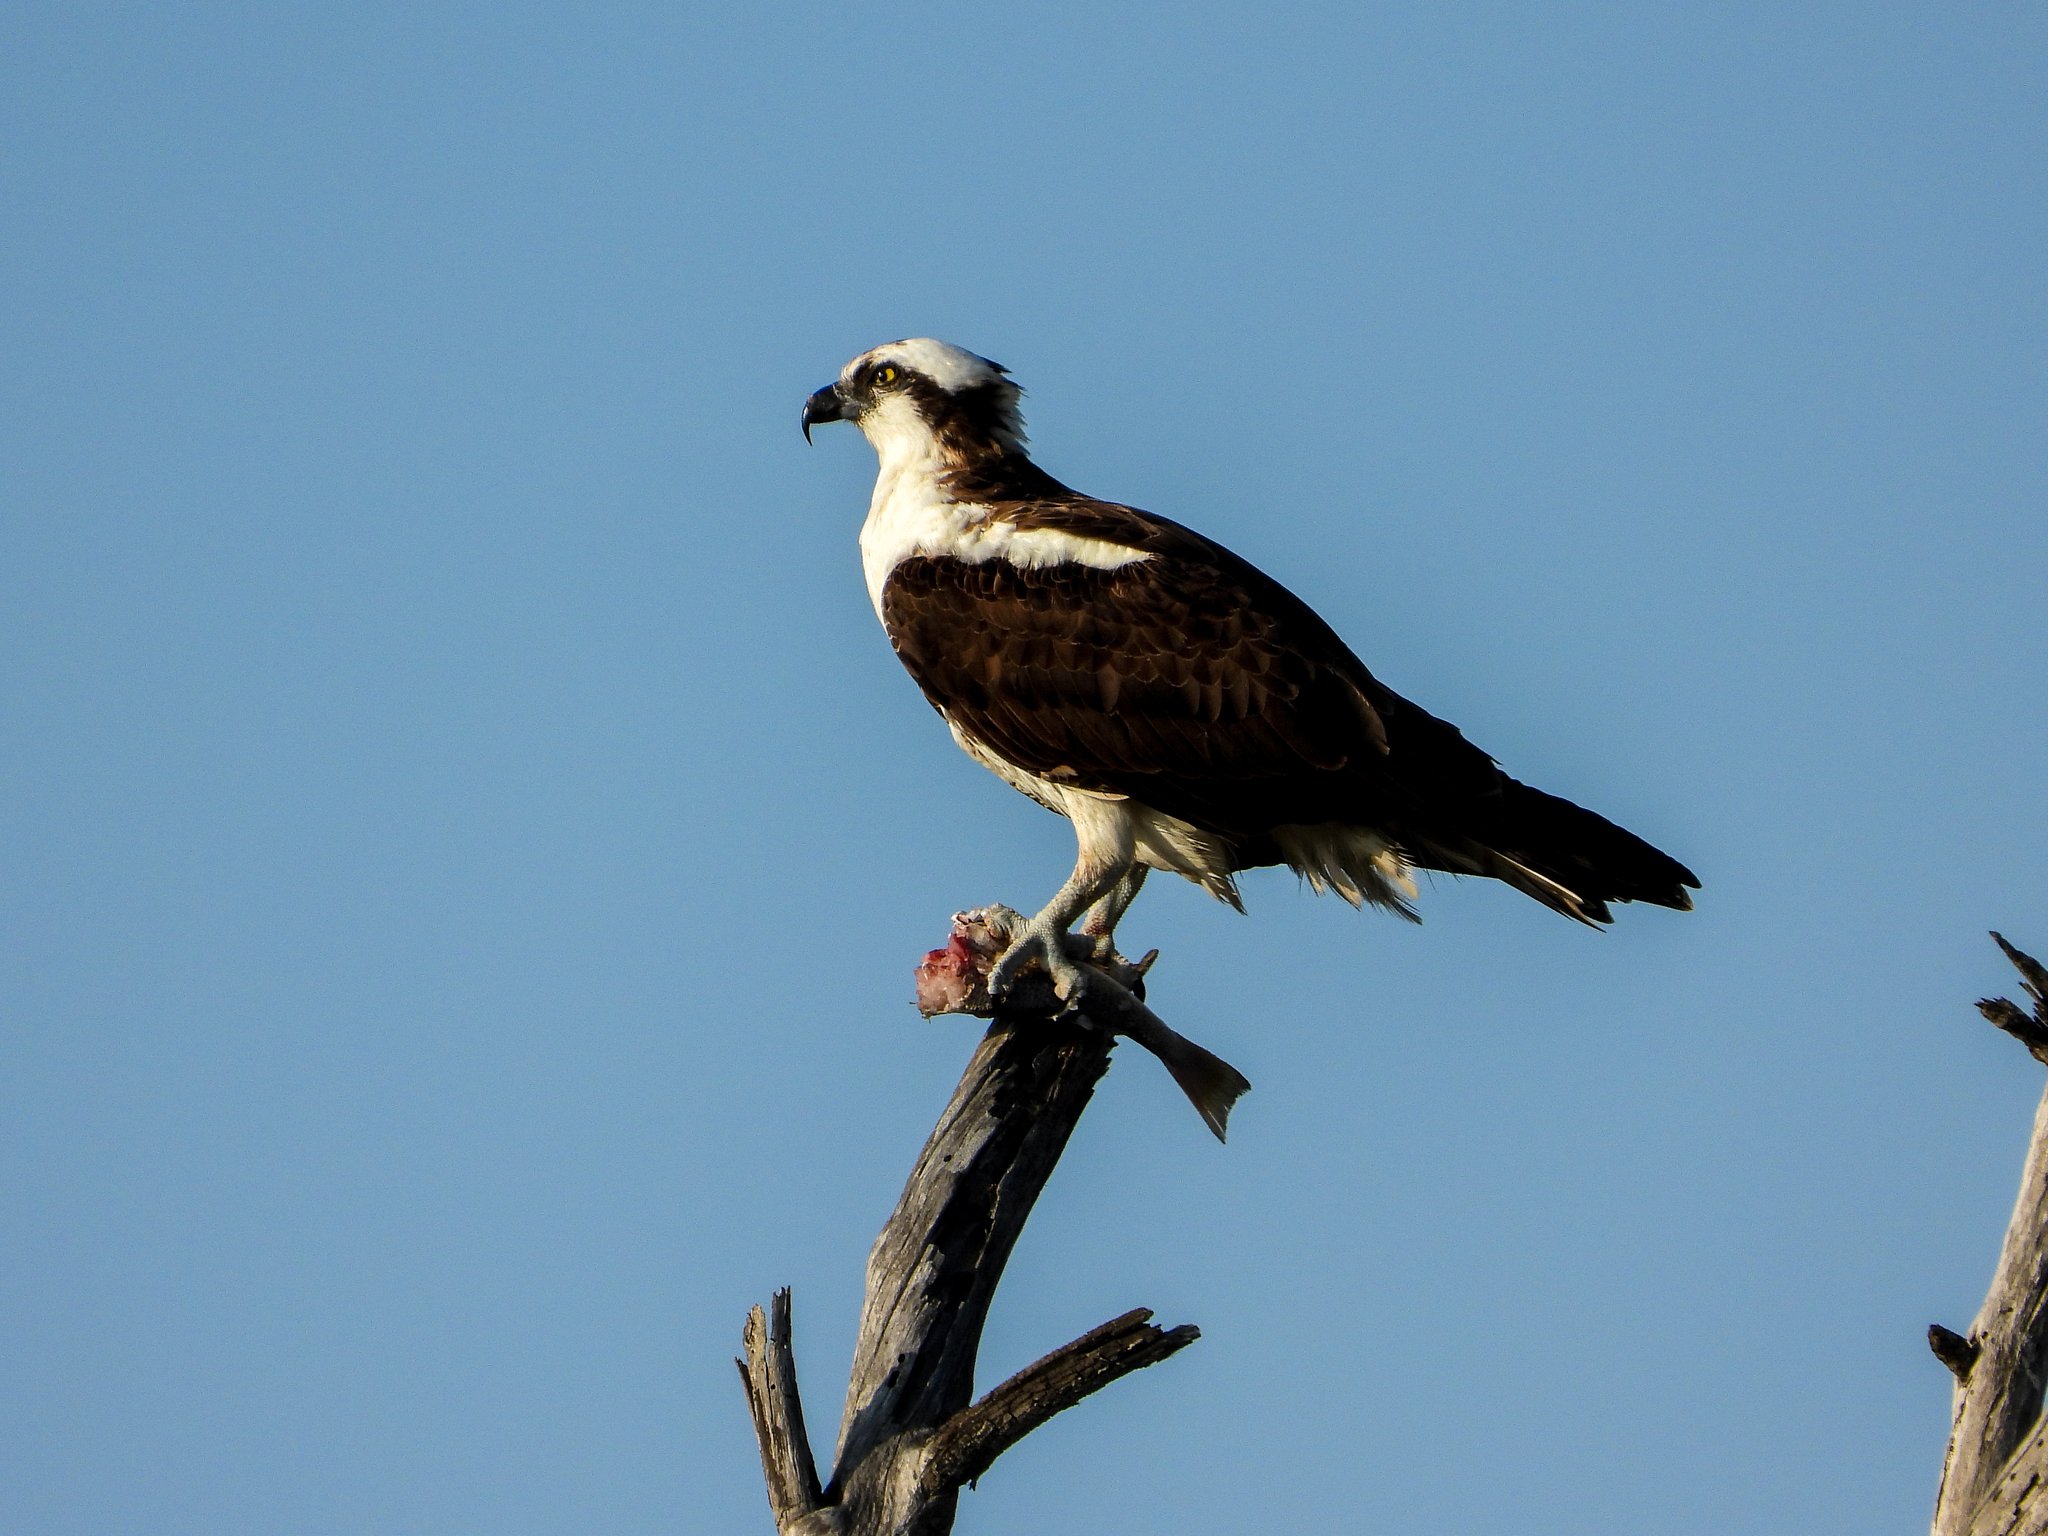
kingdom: Animalia
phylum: Chordata
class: Aves
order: Accipitriformes
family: Pandionidae
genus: Pandion
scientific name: Pandion haliaetus
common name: Osprey
